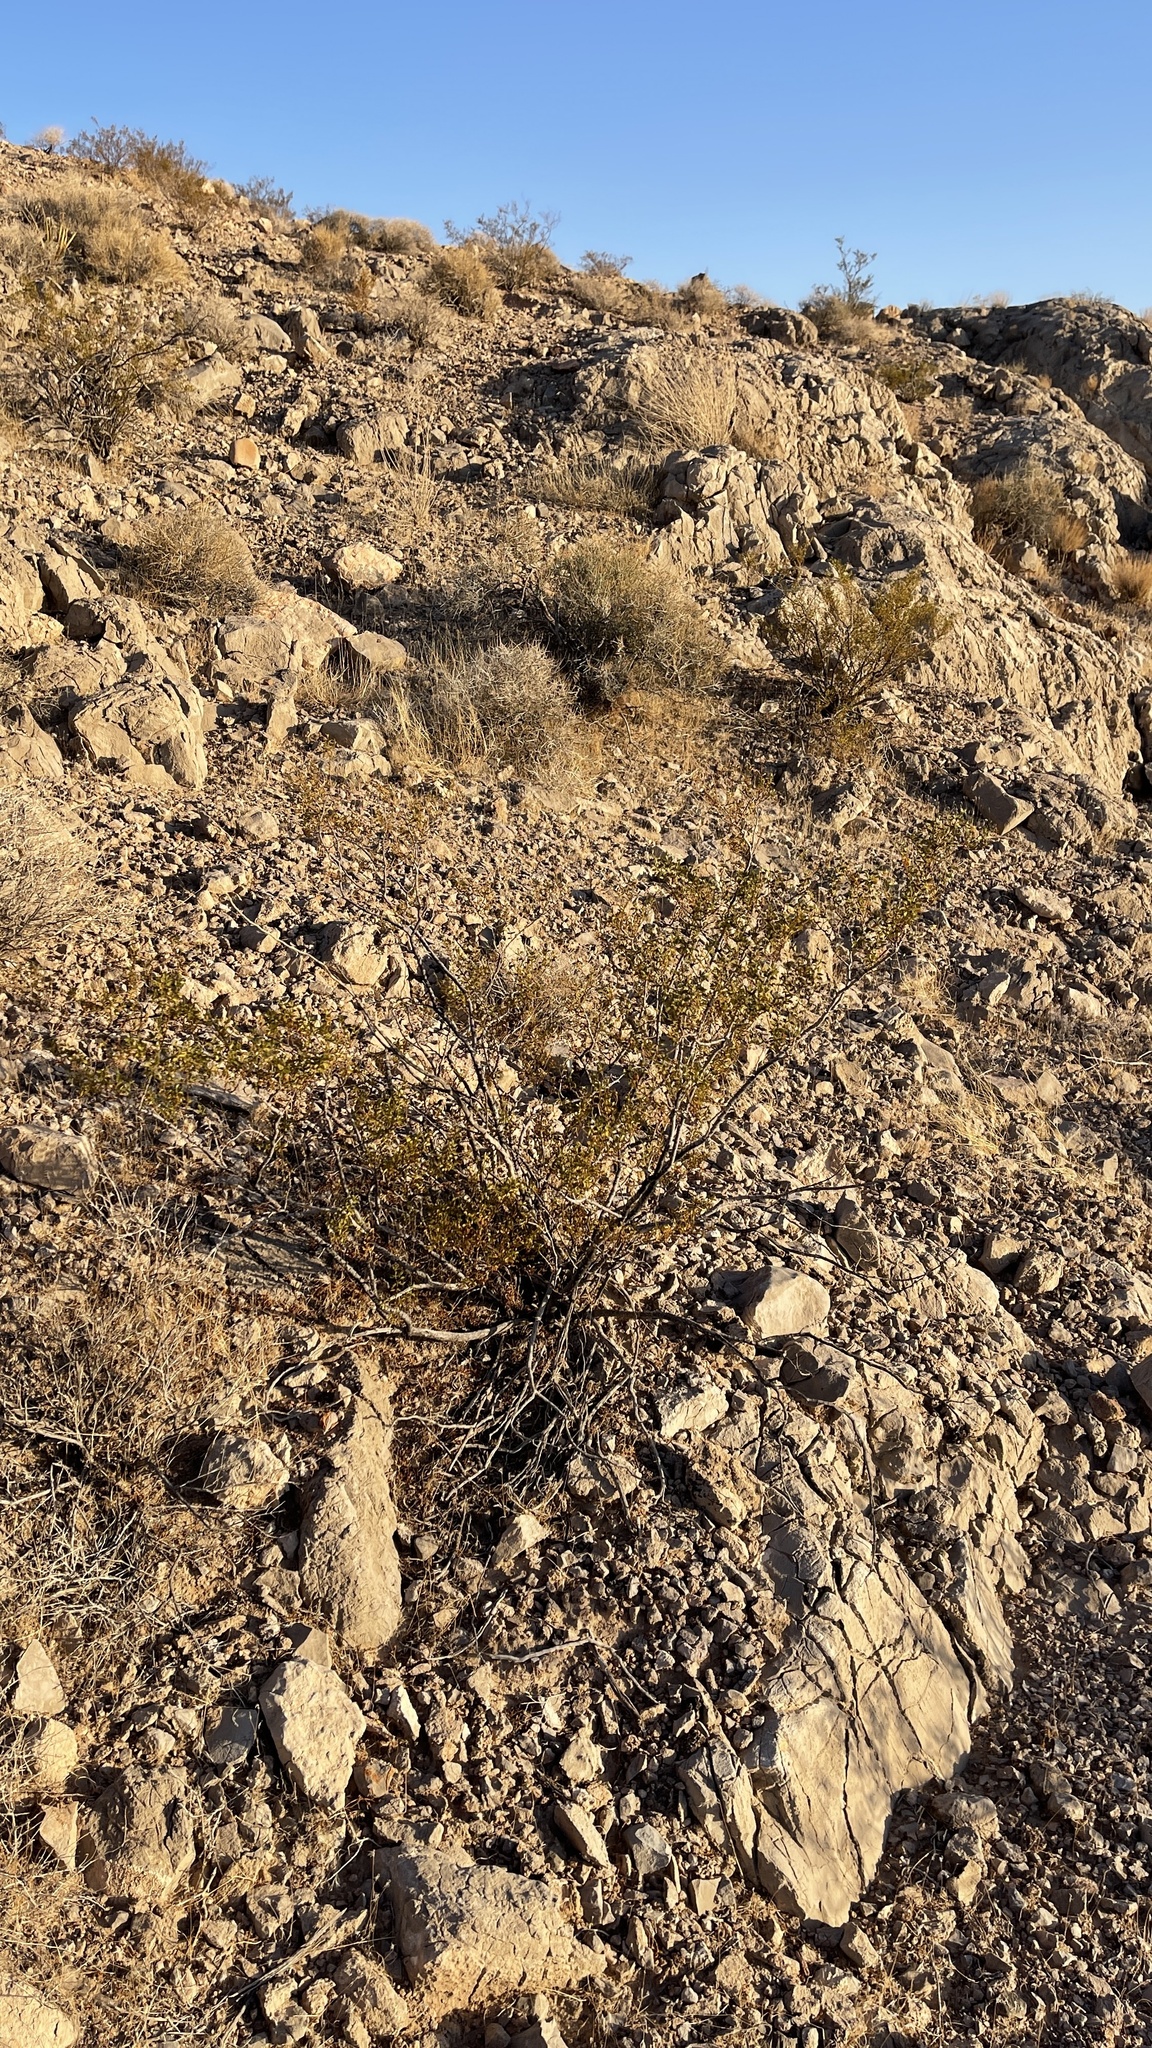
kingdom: Plantae
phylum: Tracheophyta
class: Magnoliopsida
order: Zygophyllales
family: Zygophyllaceae
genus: Larrea
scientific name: Larrea tridentata
